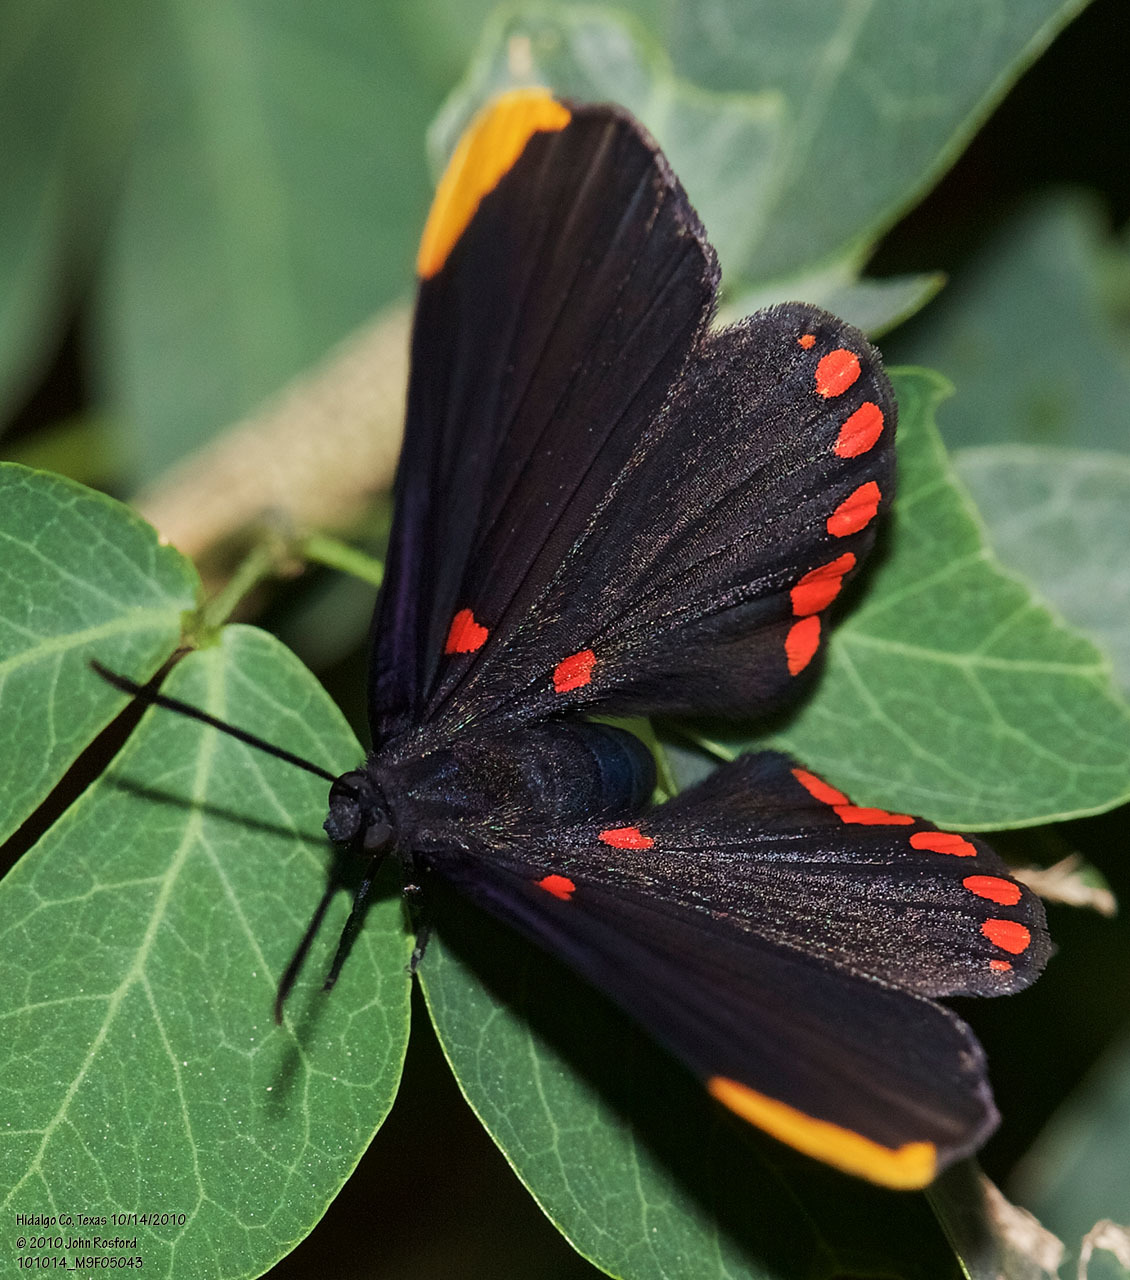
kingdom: Animalia
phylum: Arthropoda
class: Insecta
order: Lepidoptera
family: Lycaenidae
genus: Melanis
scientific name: Melanis pixe
